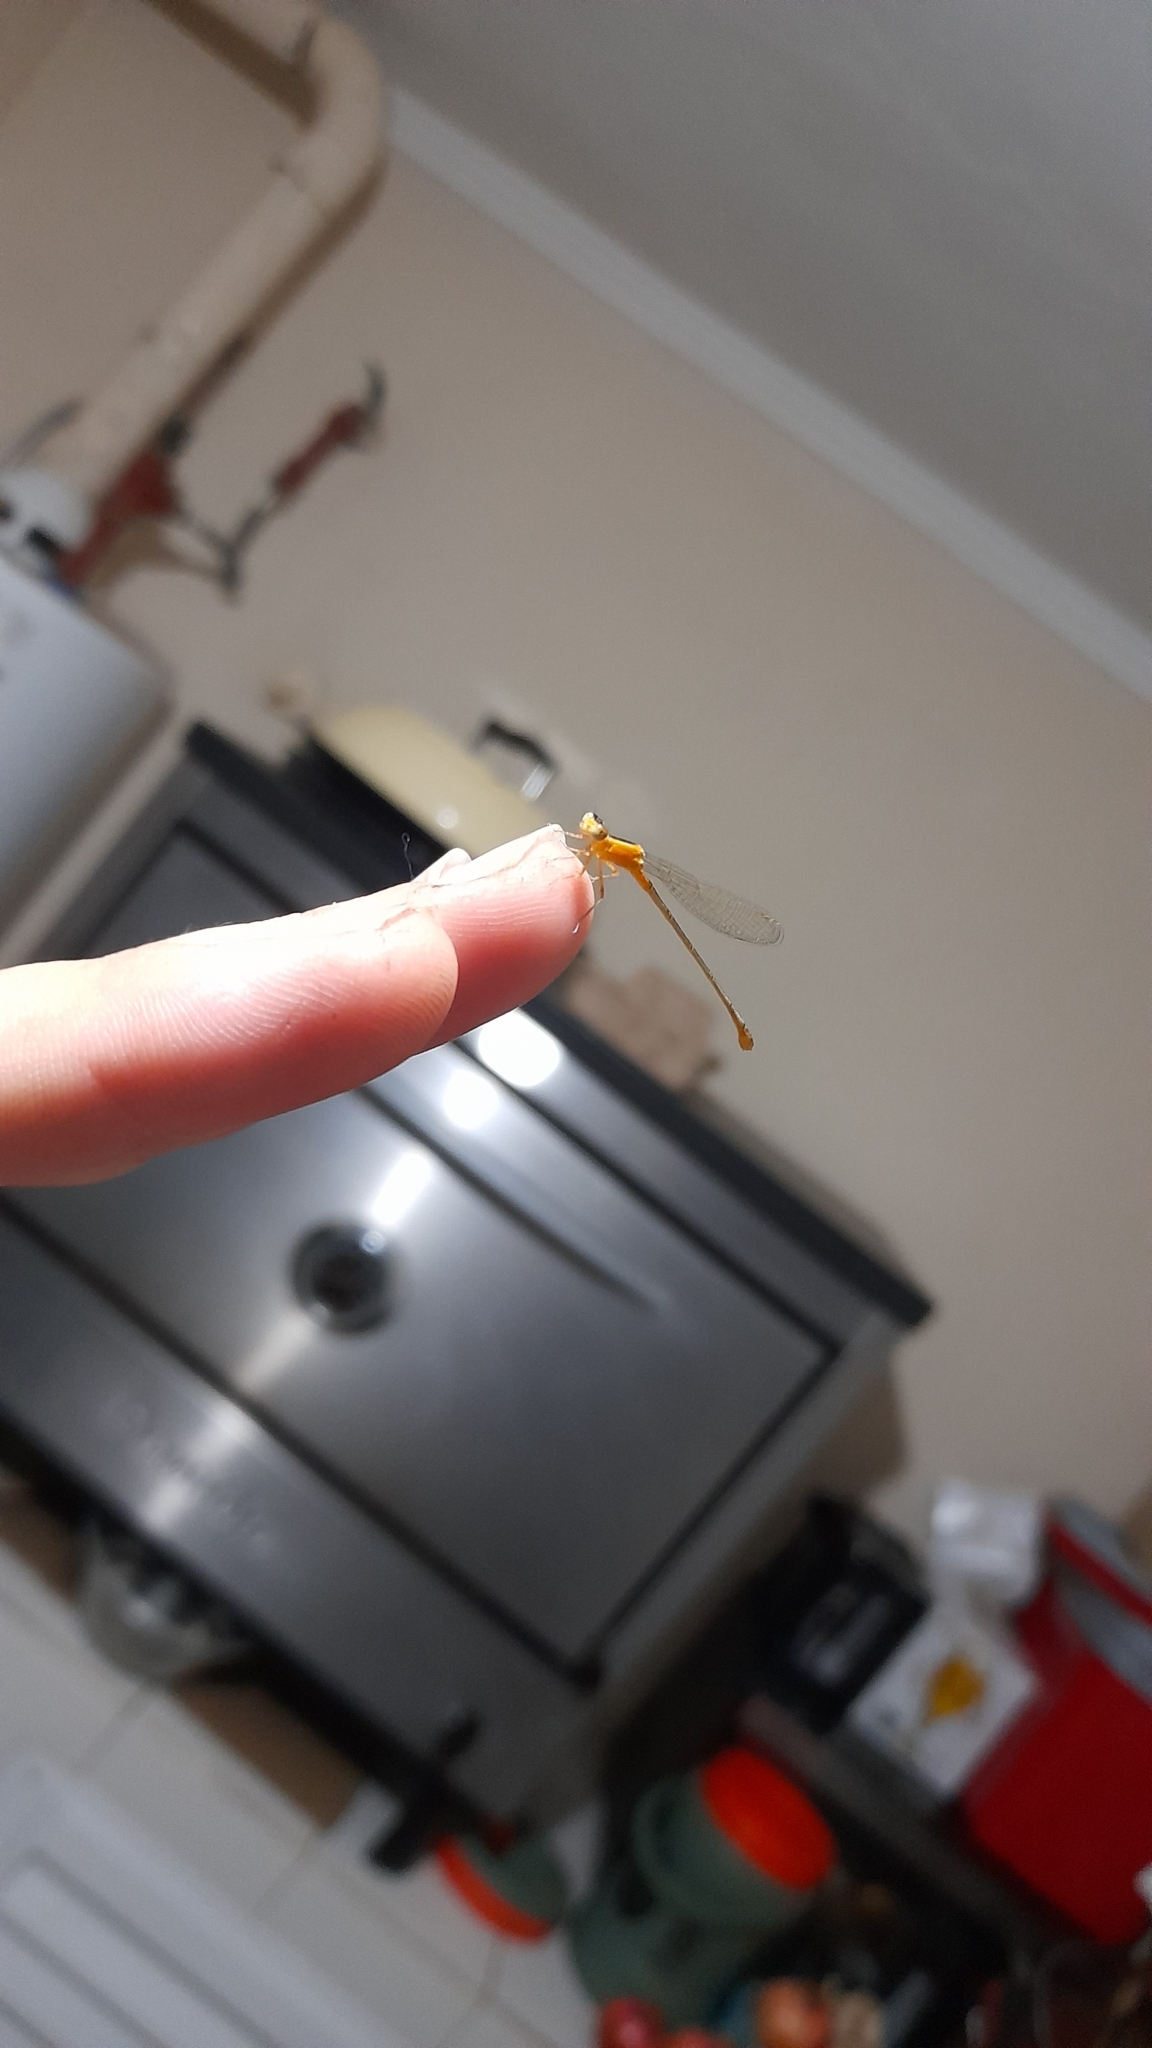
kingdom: Animalia
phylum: Arthropoda
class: Insecta
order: Odonata
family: Coenagrionidae
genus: Ischnura
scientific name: Ischnura fluviatilis
